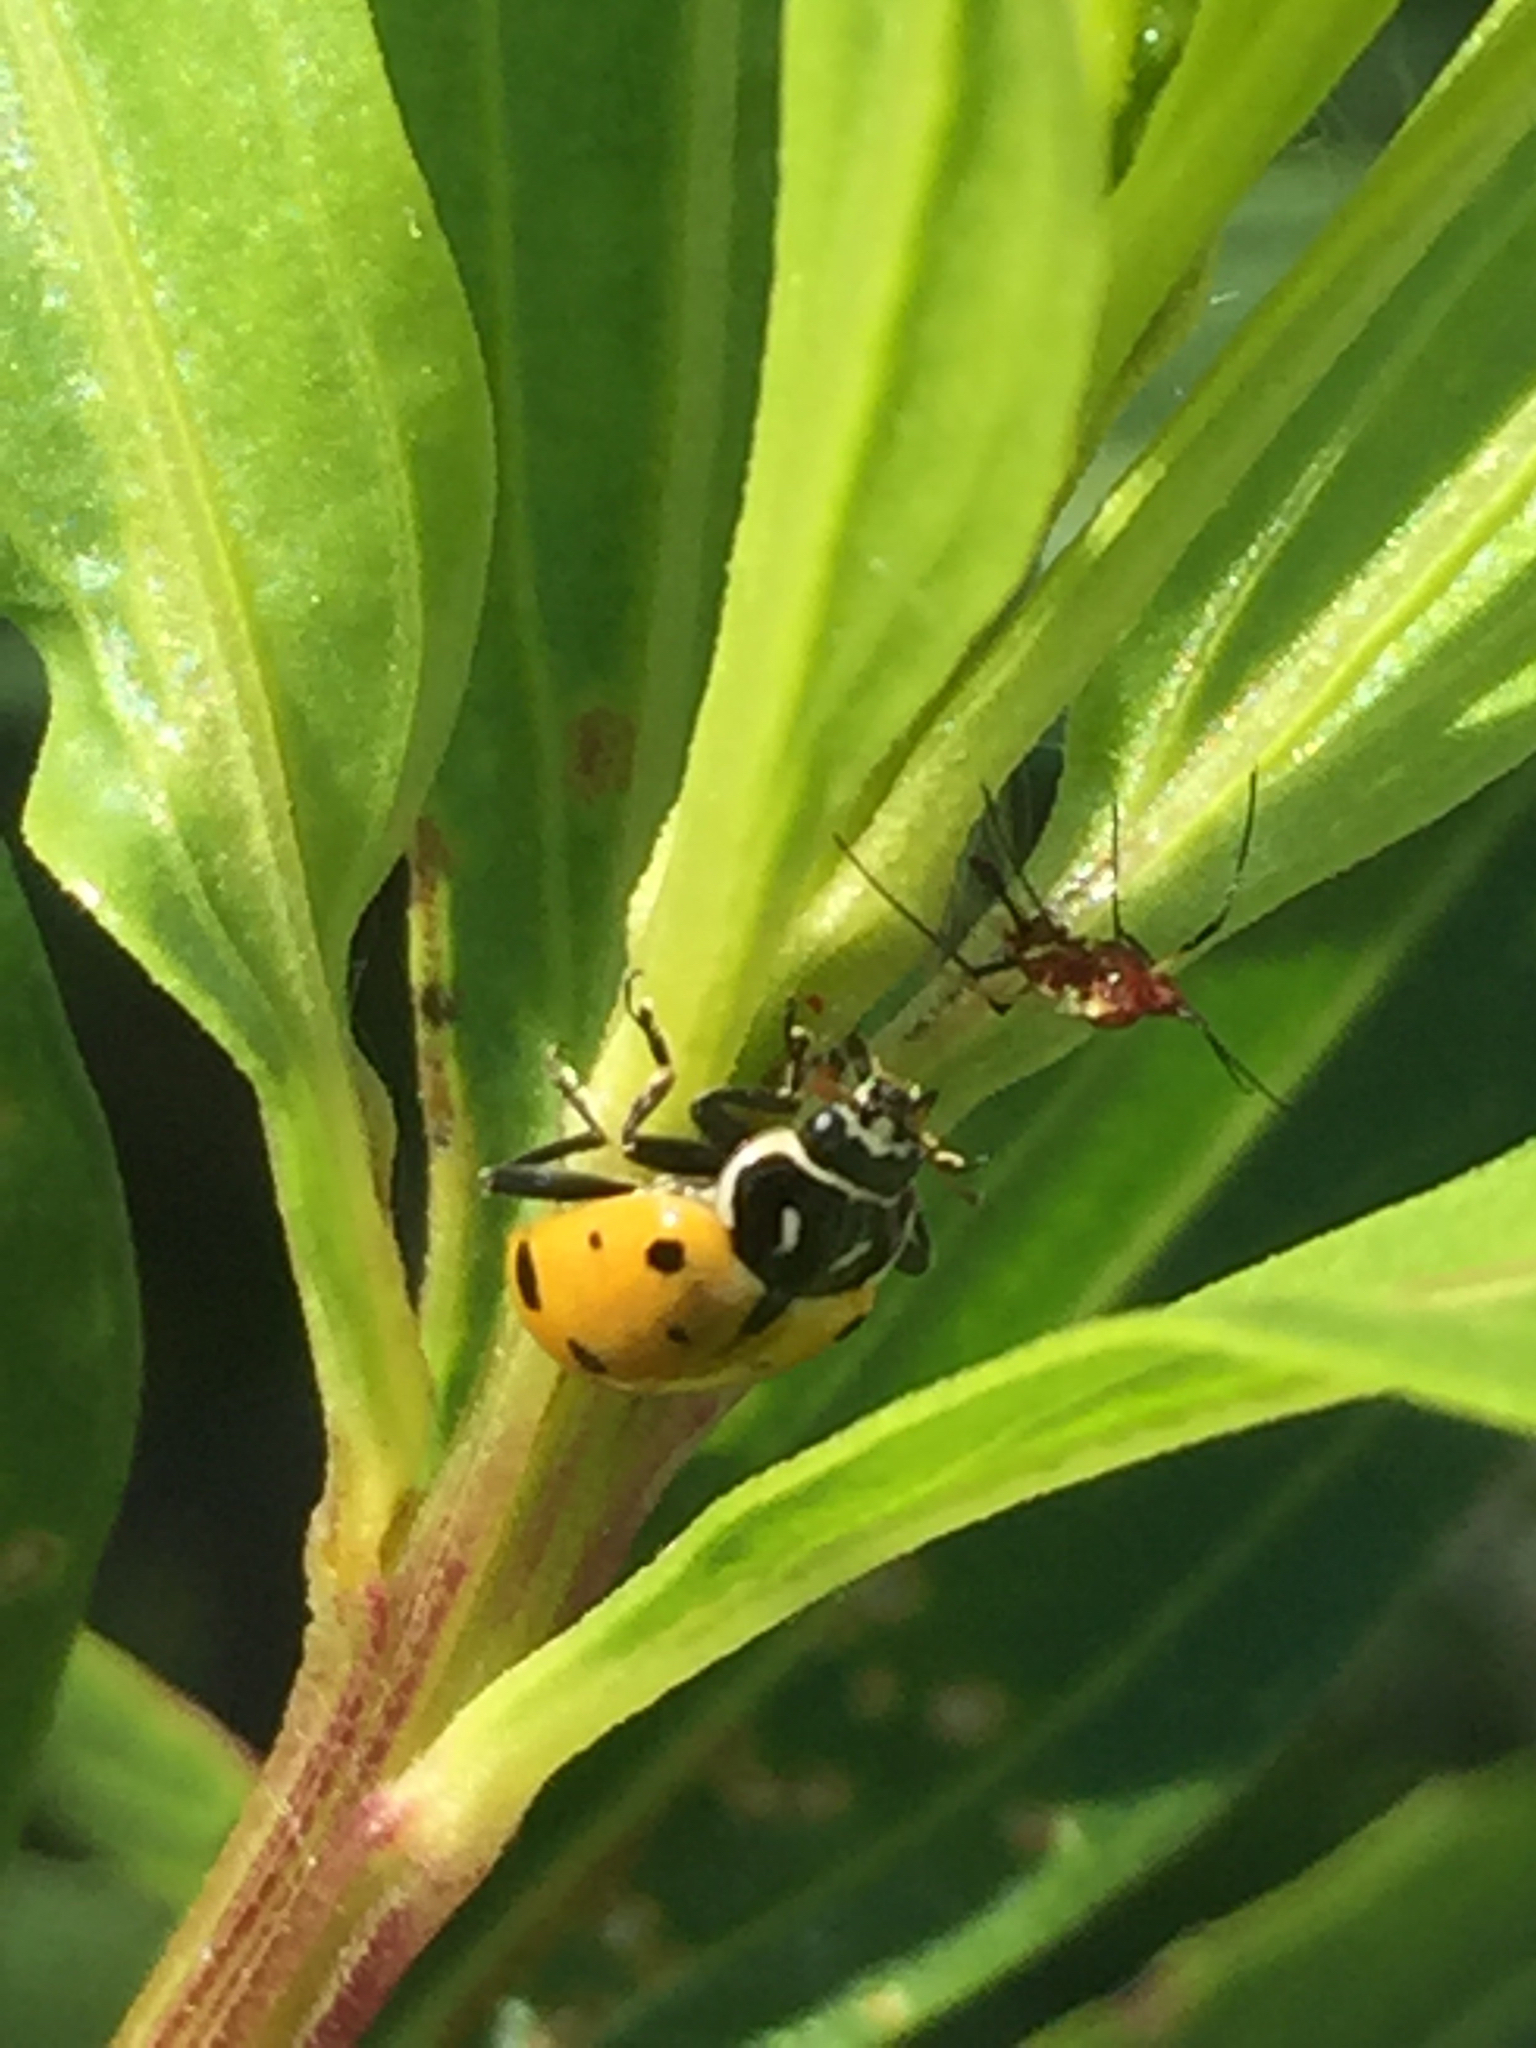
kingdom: Animalia
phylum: Arthropoda
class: Insecta
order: Coleoptera
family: Coccinellidae
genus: Hippodamia
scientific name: Hippodamia convergens
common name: Convergent lady beetle
